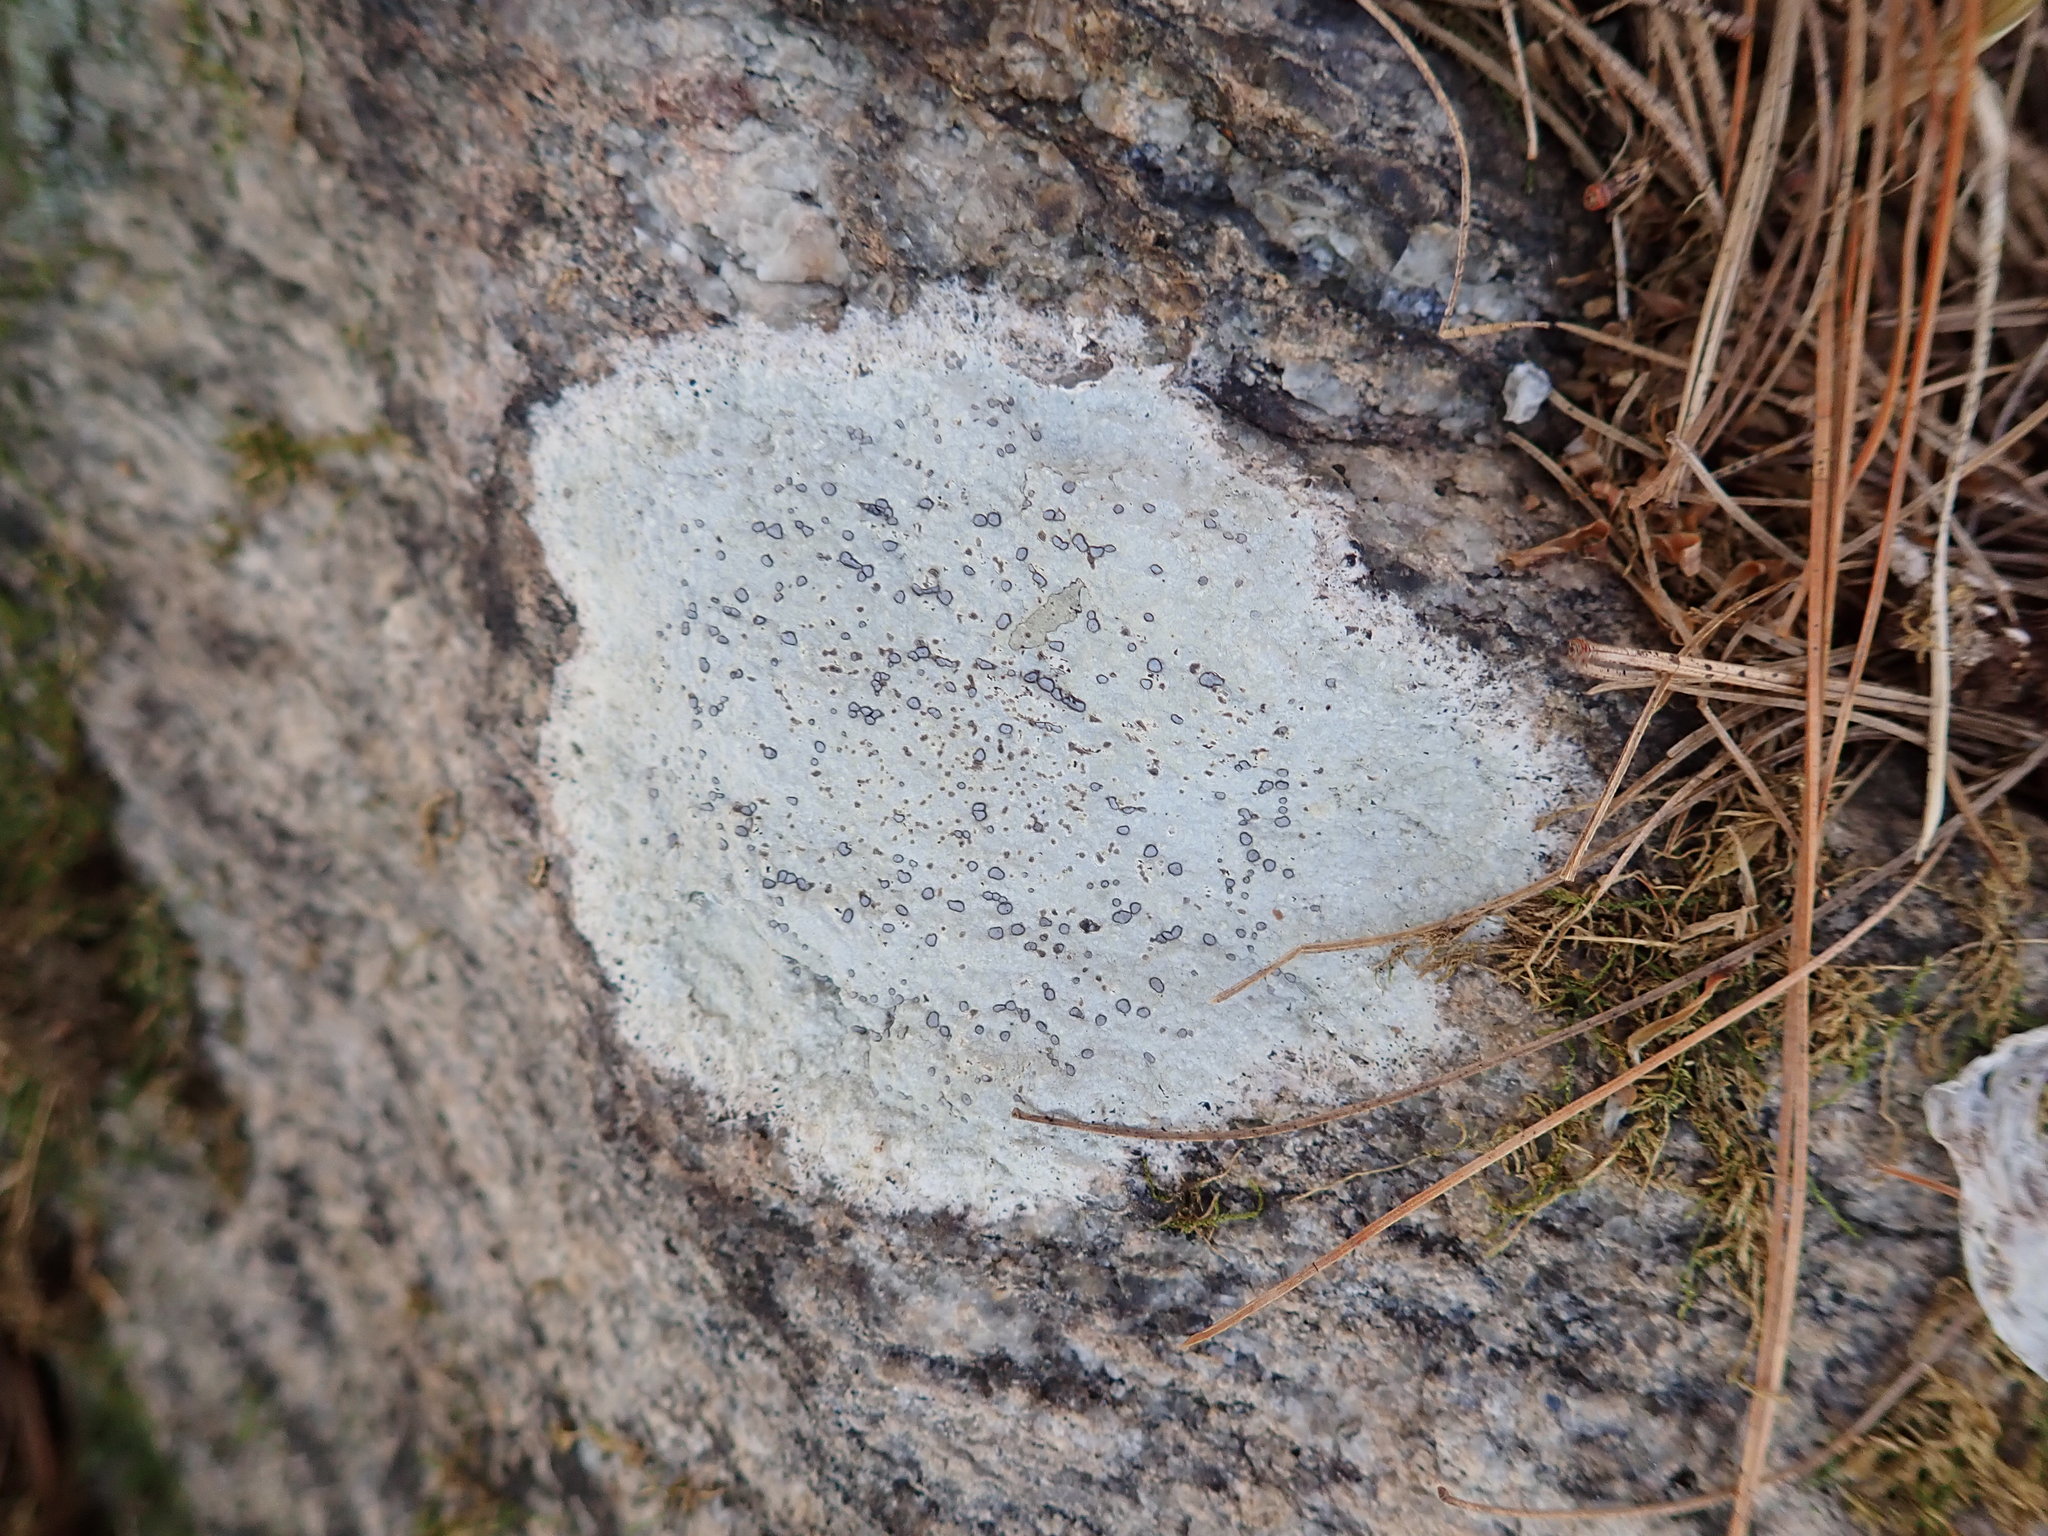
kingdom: Fungi
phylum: Ascomycota
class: Lecanoromycetes
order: Lecideales
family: Lecideaceae
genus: Porpidia
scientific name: Porpidia albocaerulescens
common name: Smokey-eyed boulder lichen
